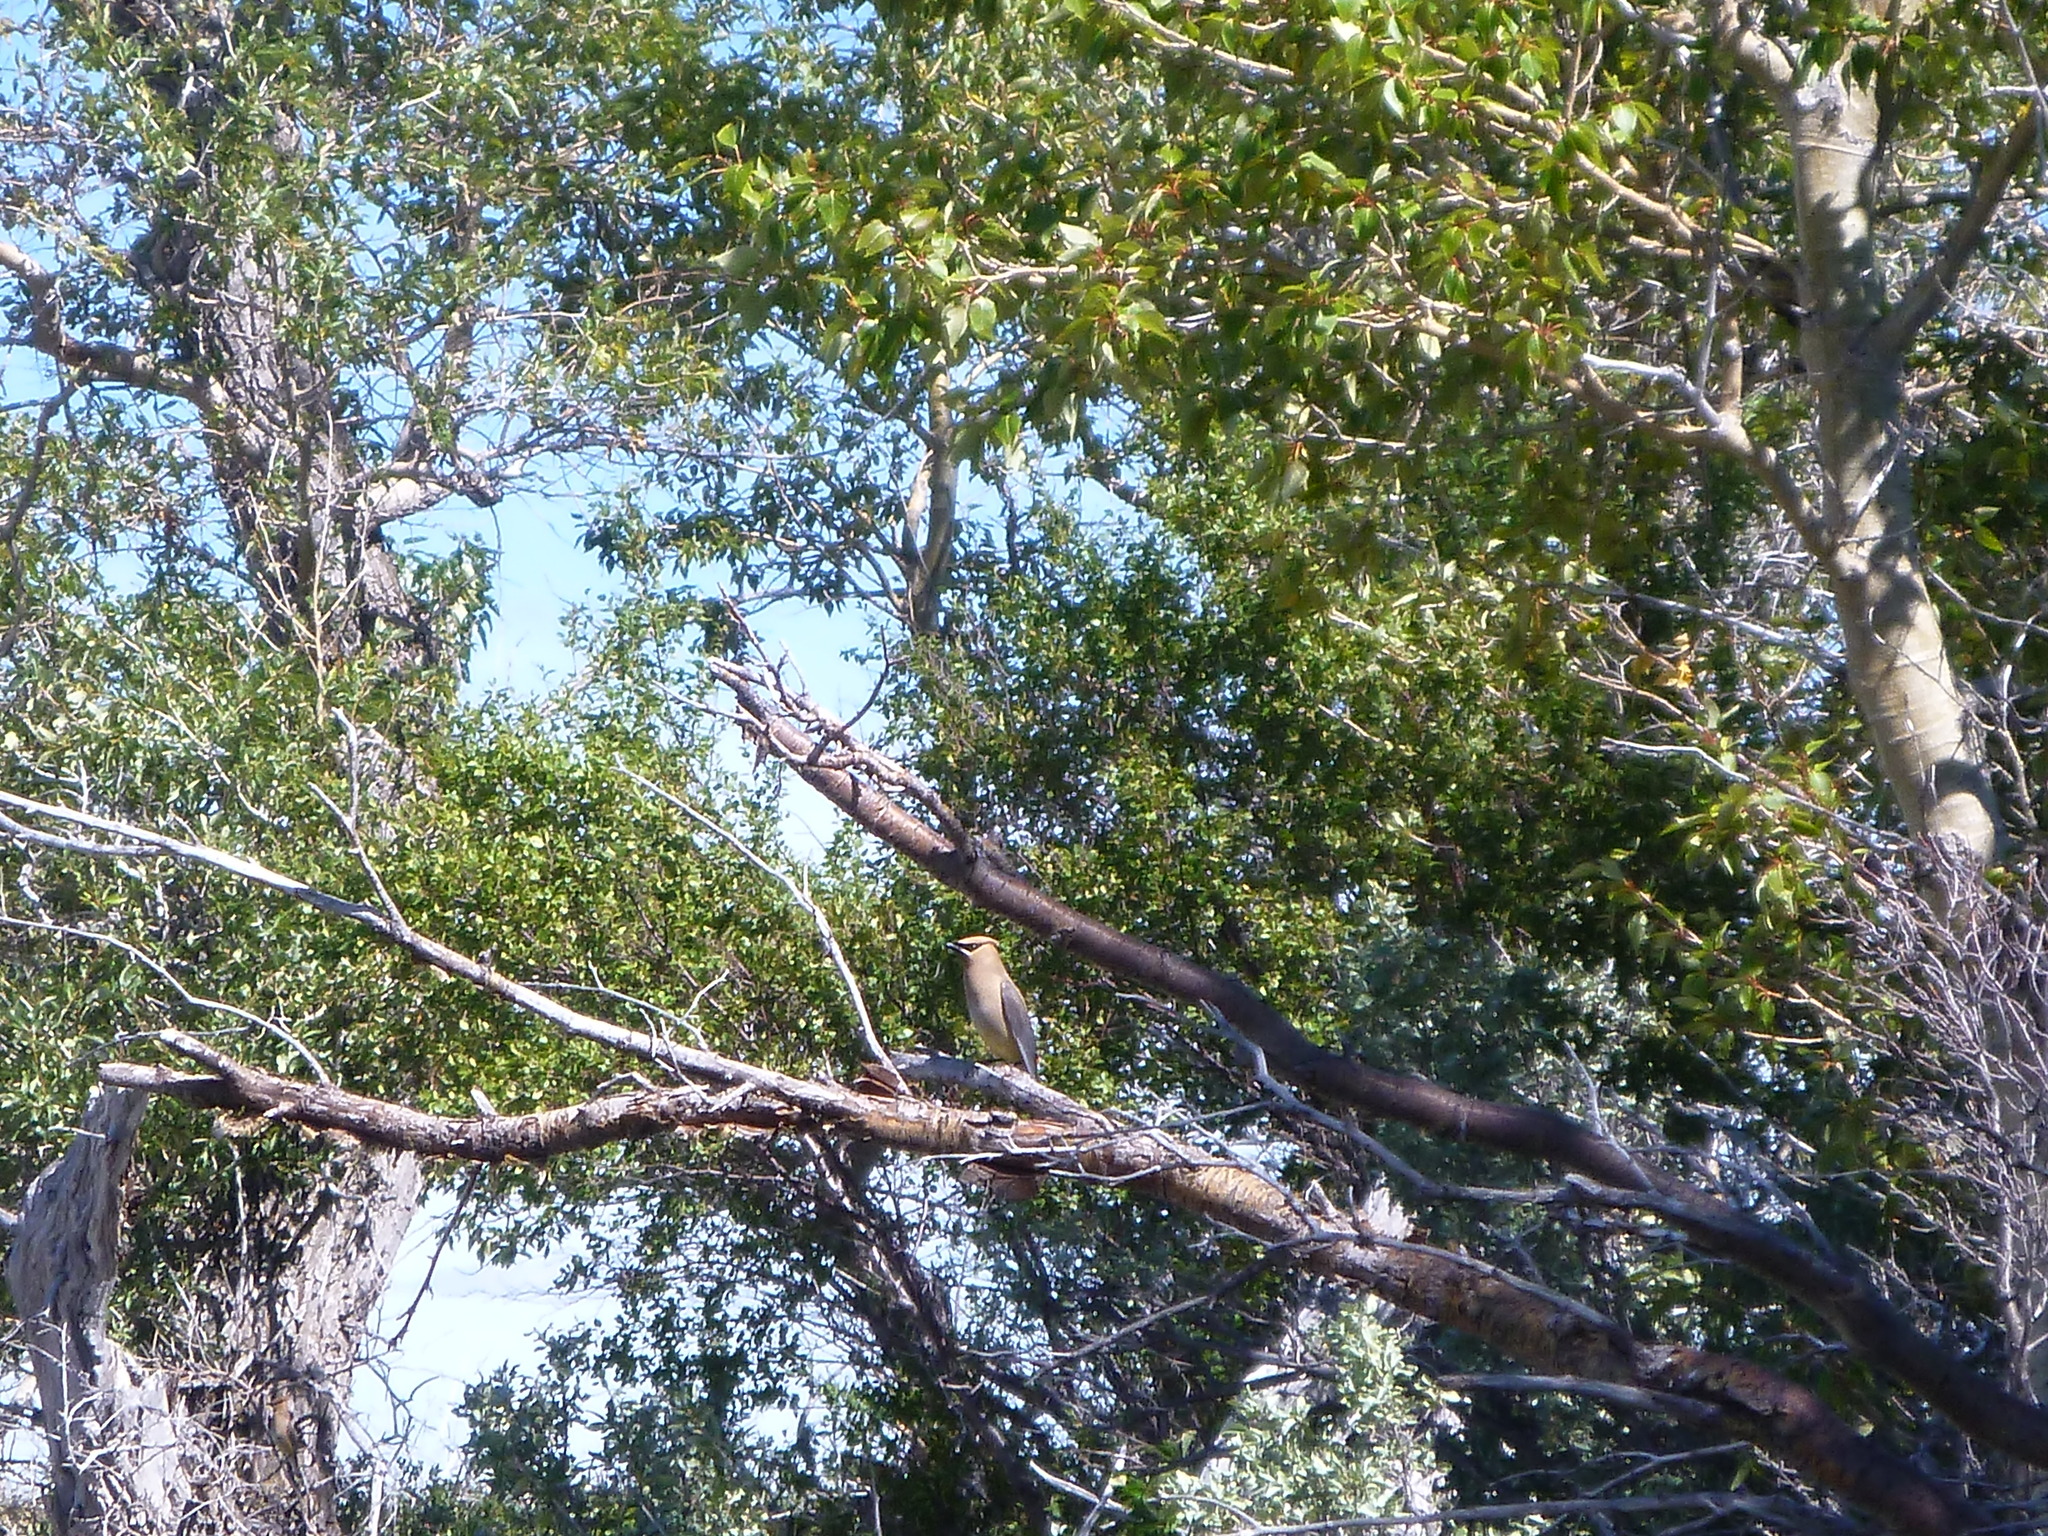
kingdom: Animalia
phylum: Chordata
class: Aves
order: Passeriformes
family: Bombycillidae
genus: Bombycilla
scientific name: Bombycilla cedrorum
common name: Cedar waxwing
